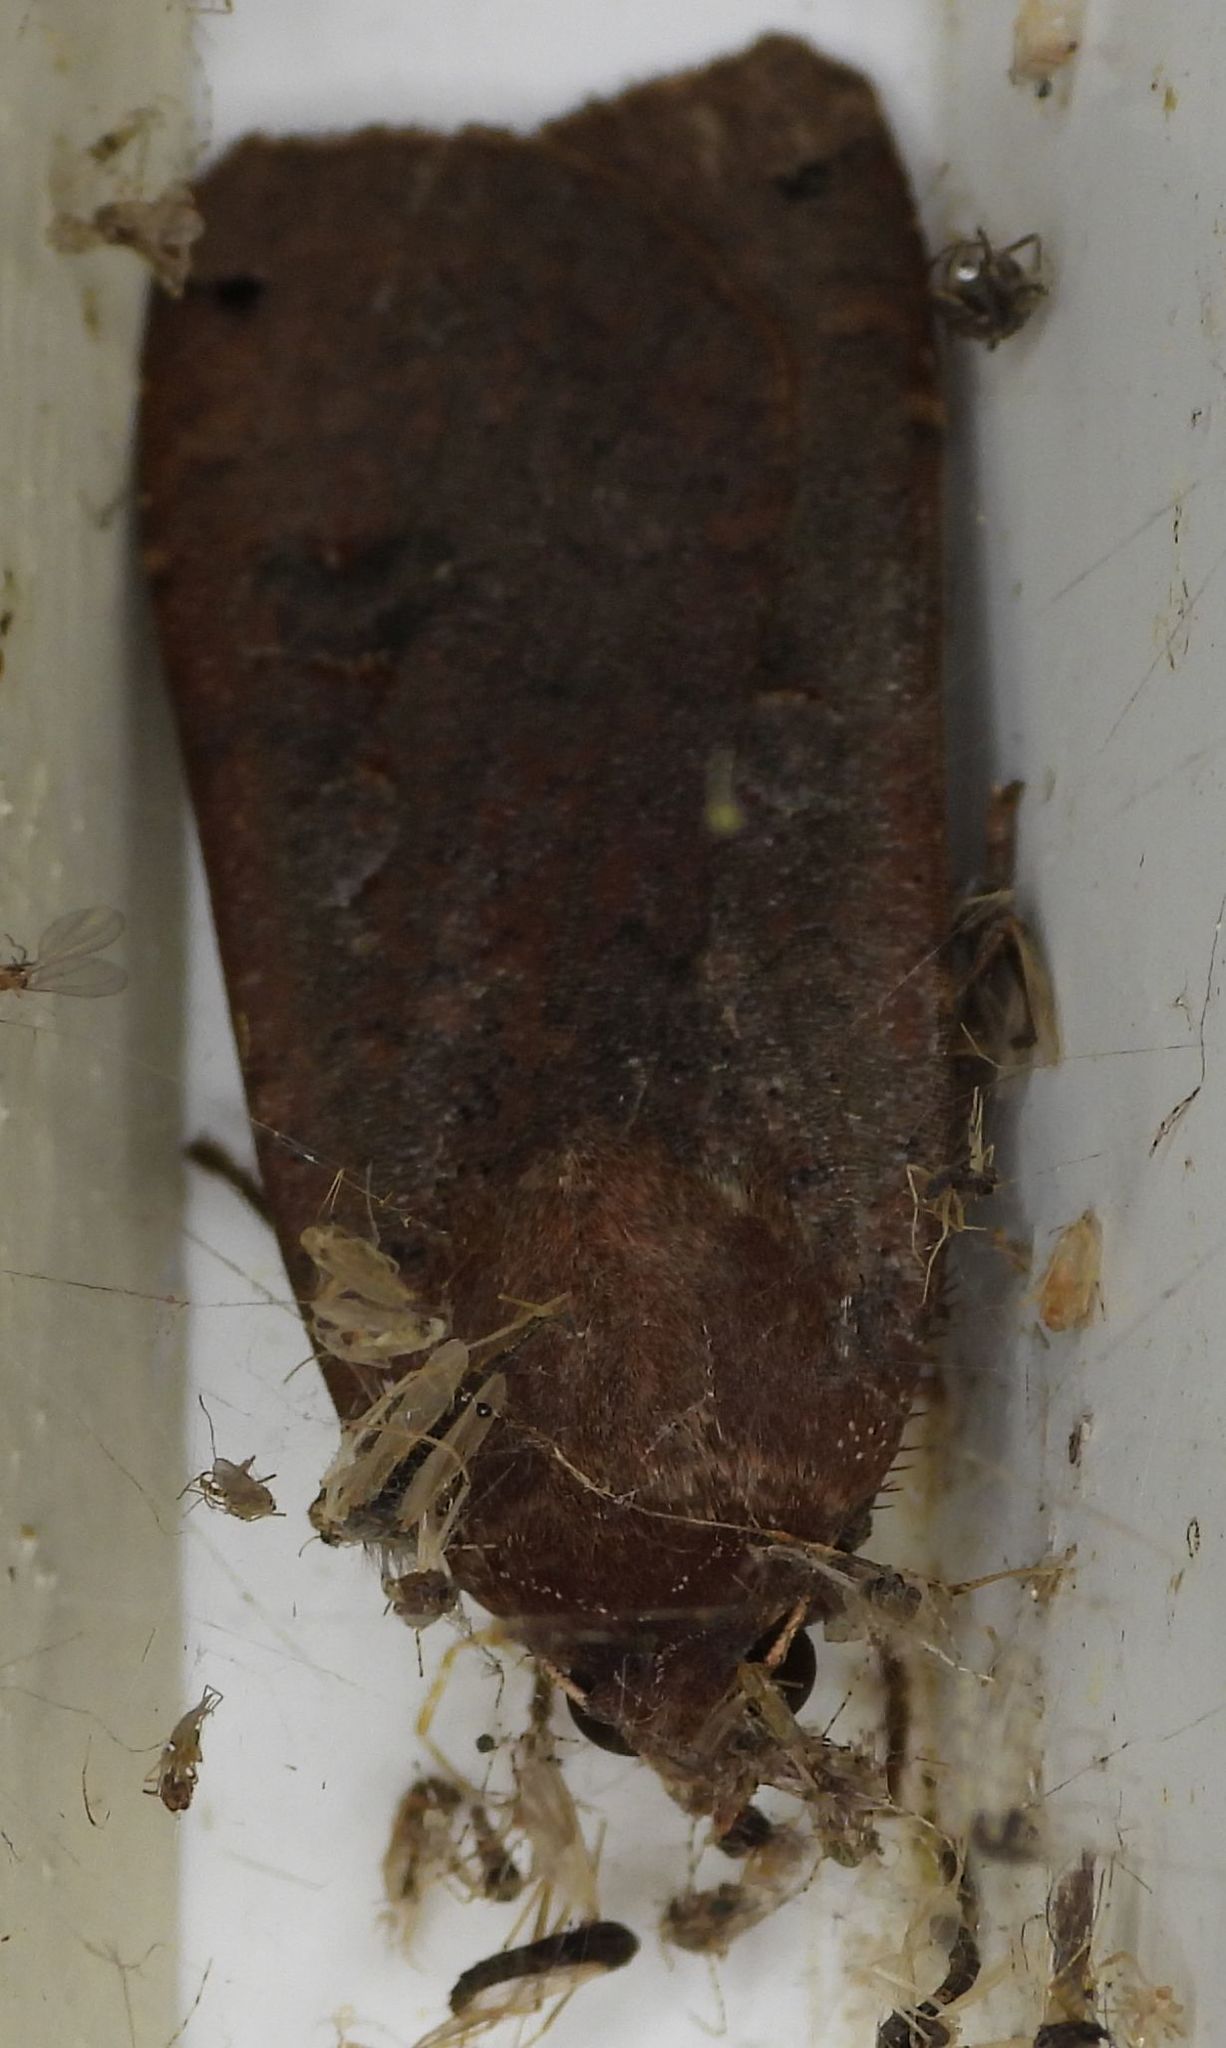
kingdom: Animalia
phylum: Arthropoda
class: Insecta
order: Lepidoptera
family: Noctuidae
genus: Noctua
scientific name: Noctua pronuba
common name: Large yellow underwing
